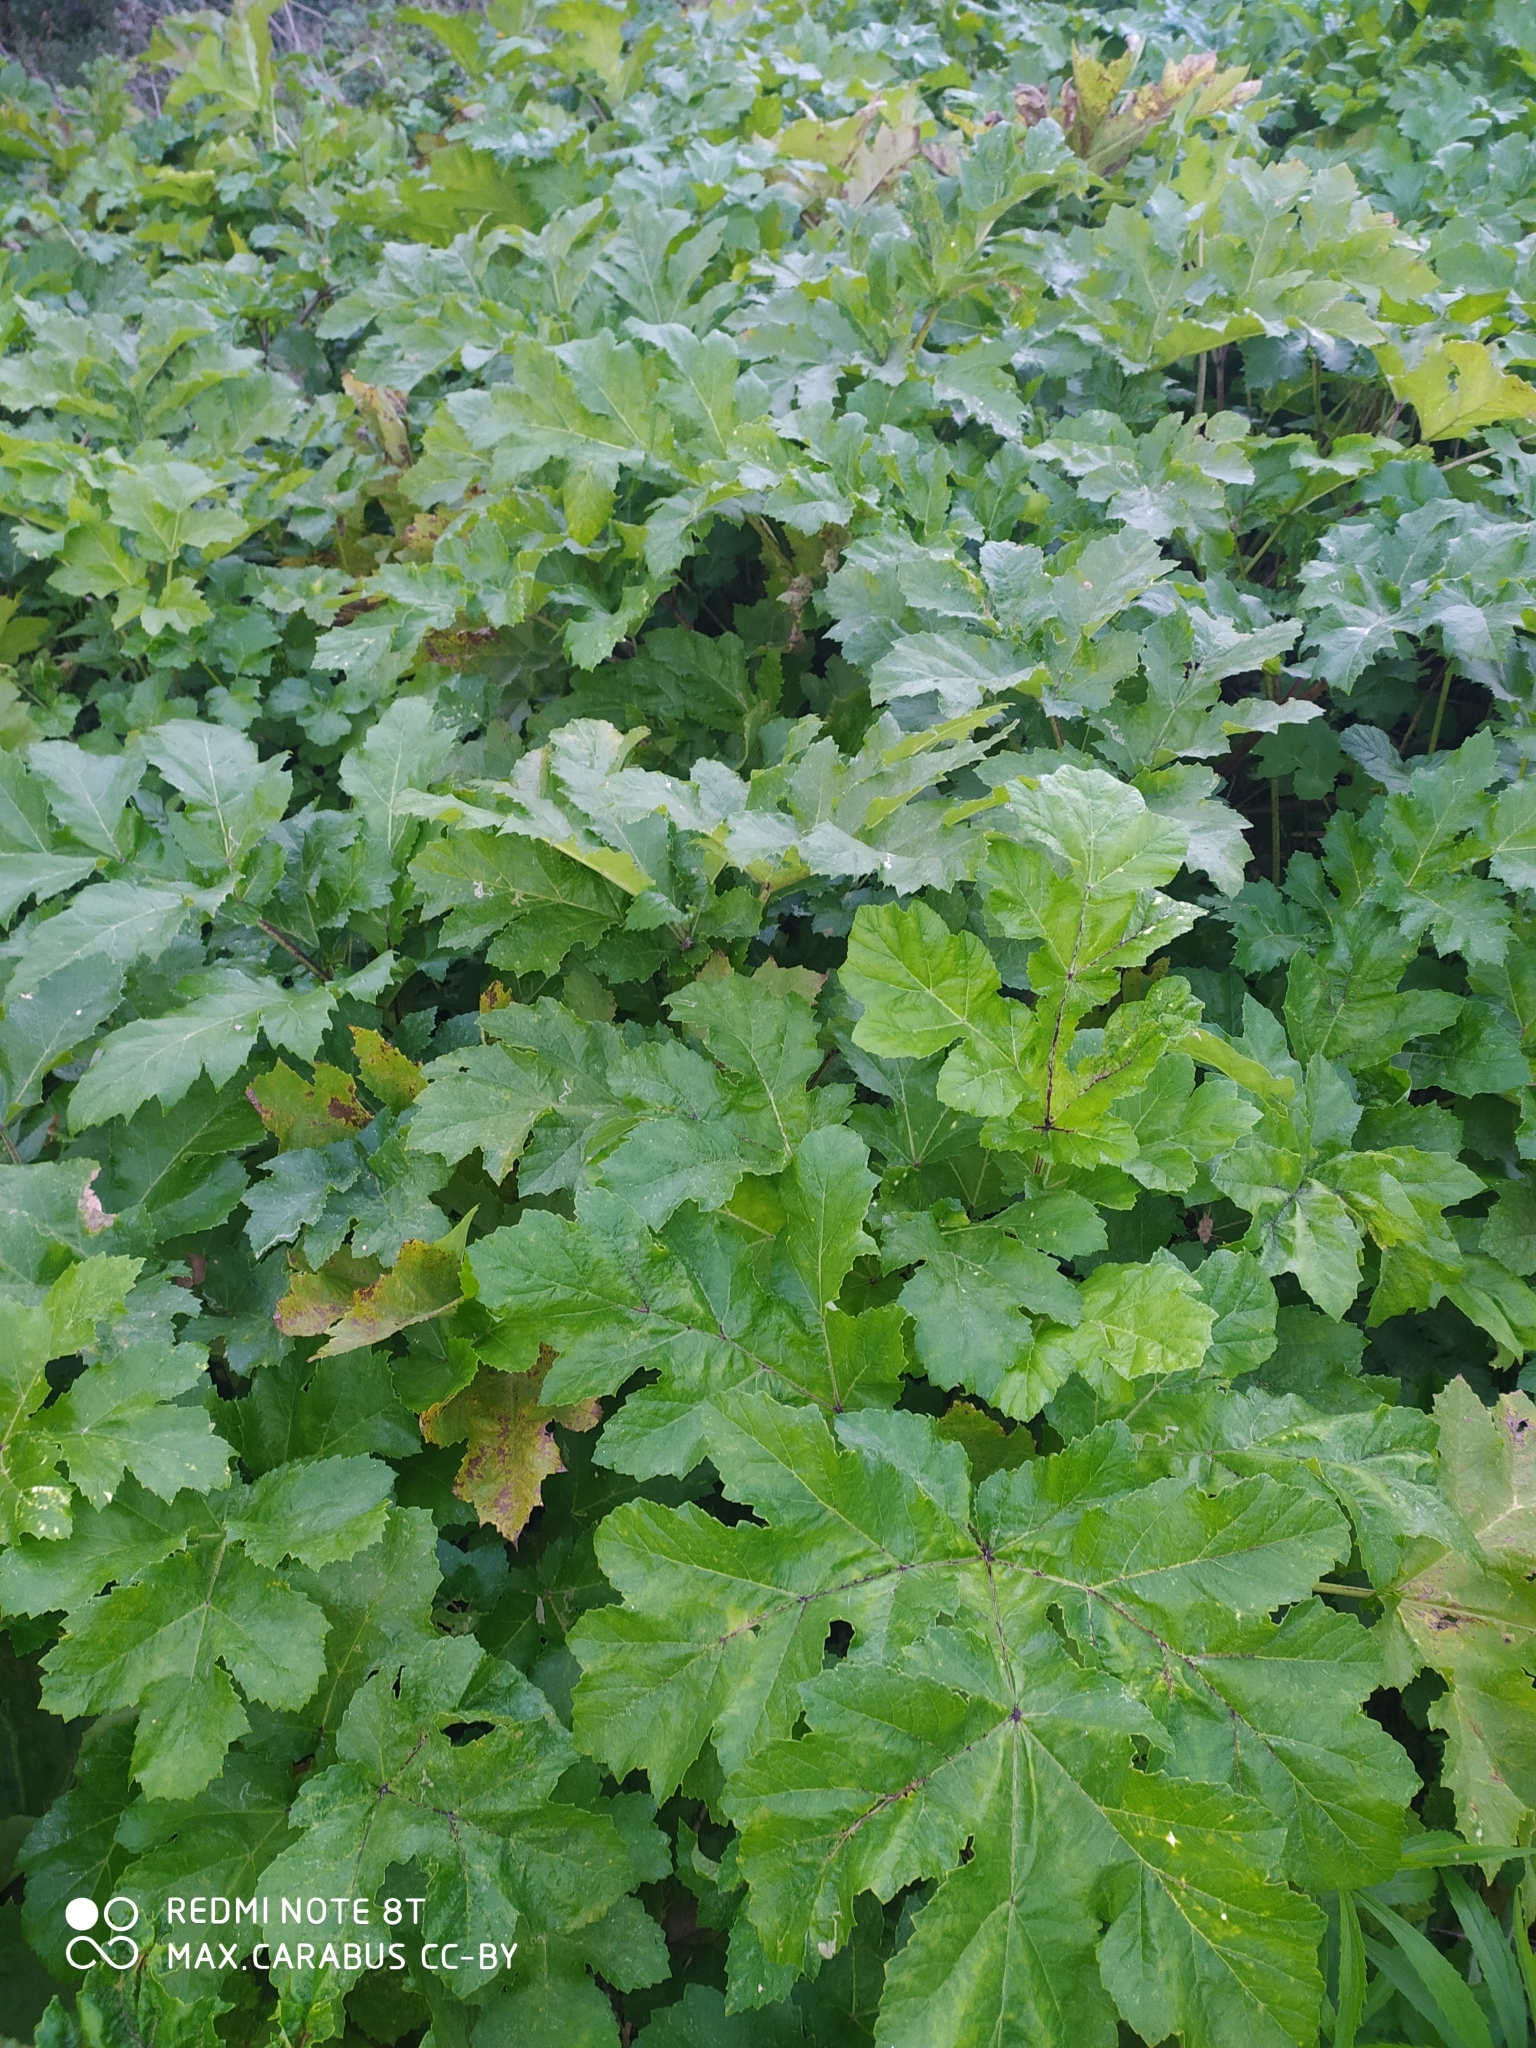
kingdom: Plantae
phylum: Tracheophyta
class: Magnoliopsida
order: Apiales
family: Apiaceae
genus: Heracleum
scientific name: Heracleum sosnowskyi
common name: Sosnowsky's hogweed
